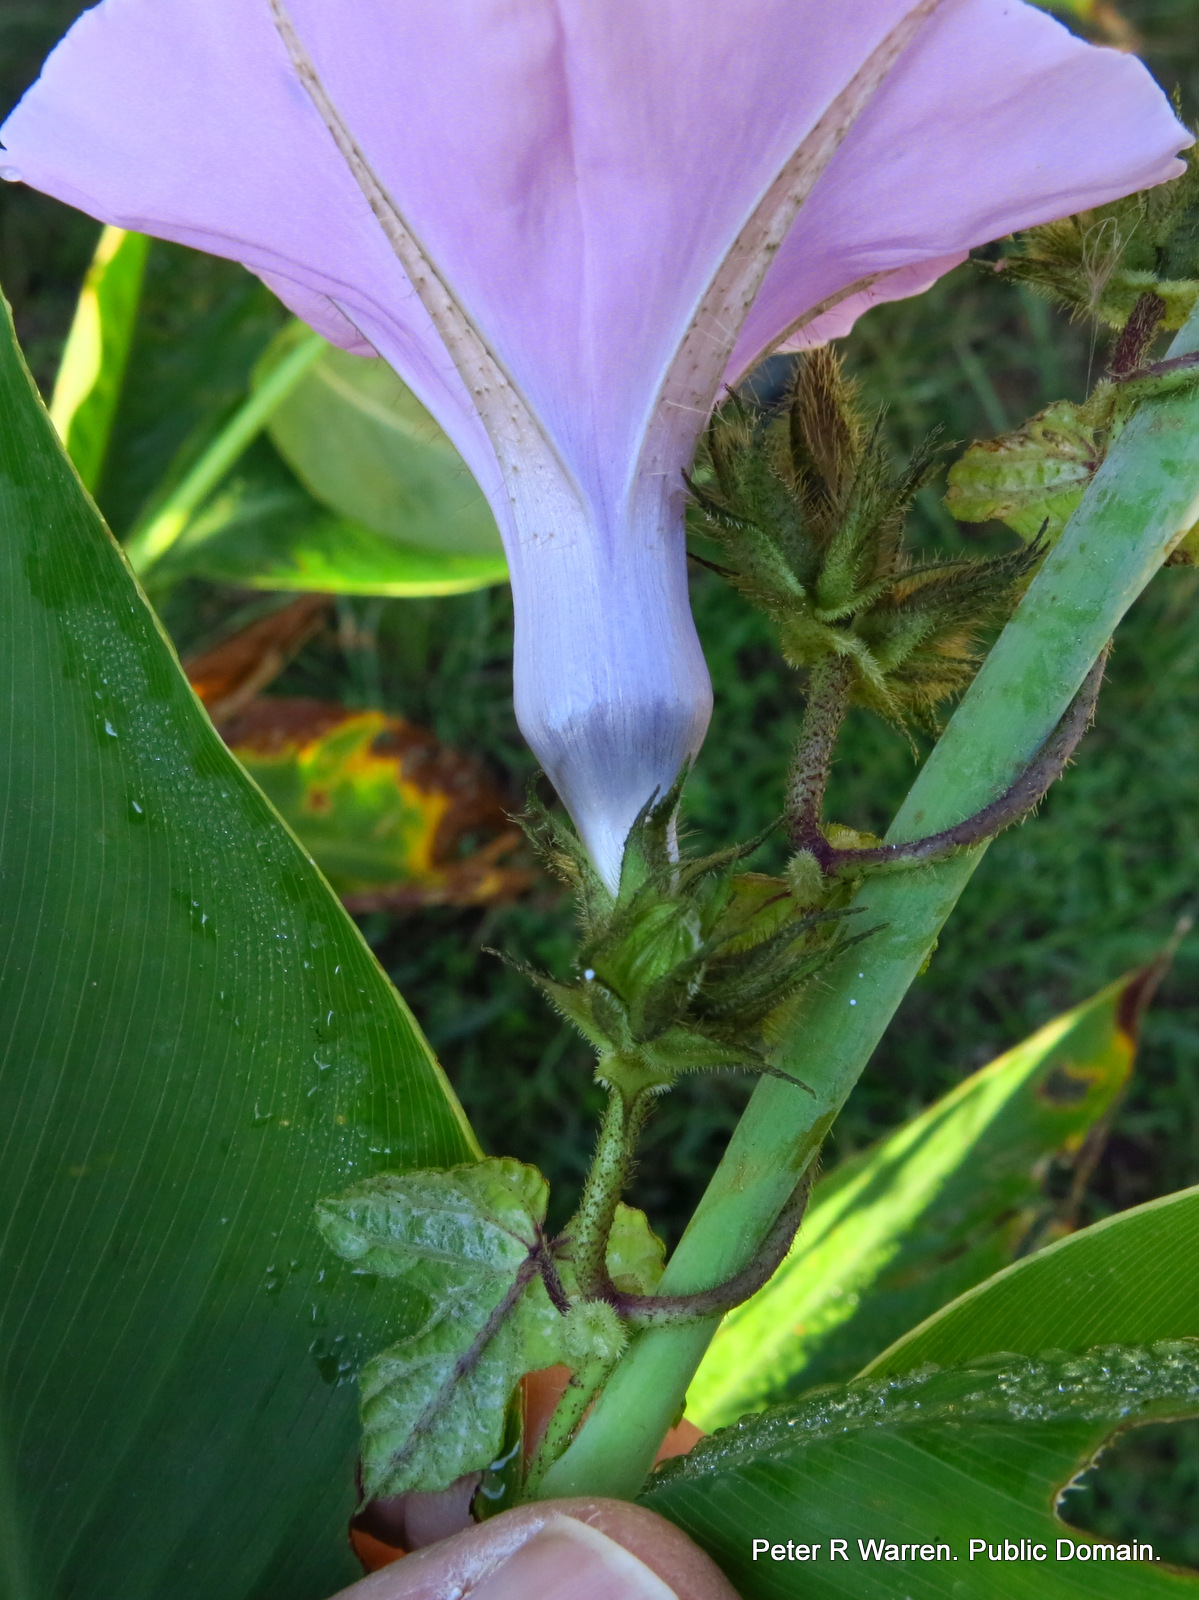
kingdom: Plantae
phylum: Tracheophyta
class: Magnoliopsida
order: Solanales
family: Convolvulaceae
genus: Ipomoea
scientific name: Ipomoea ficifolia
